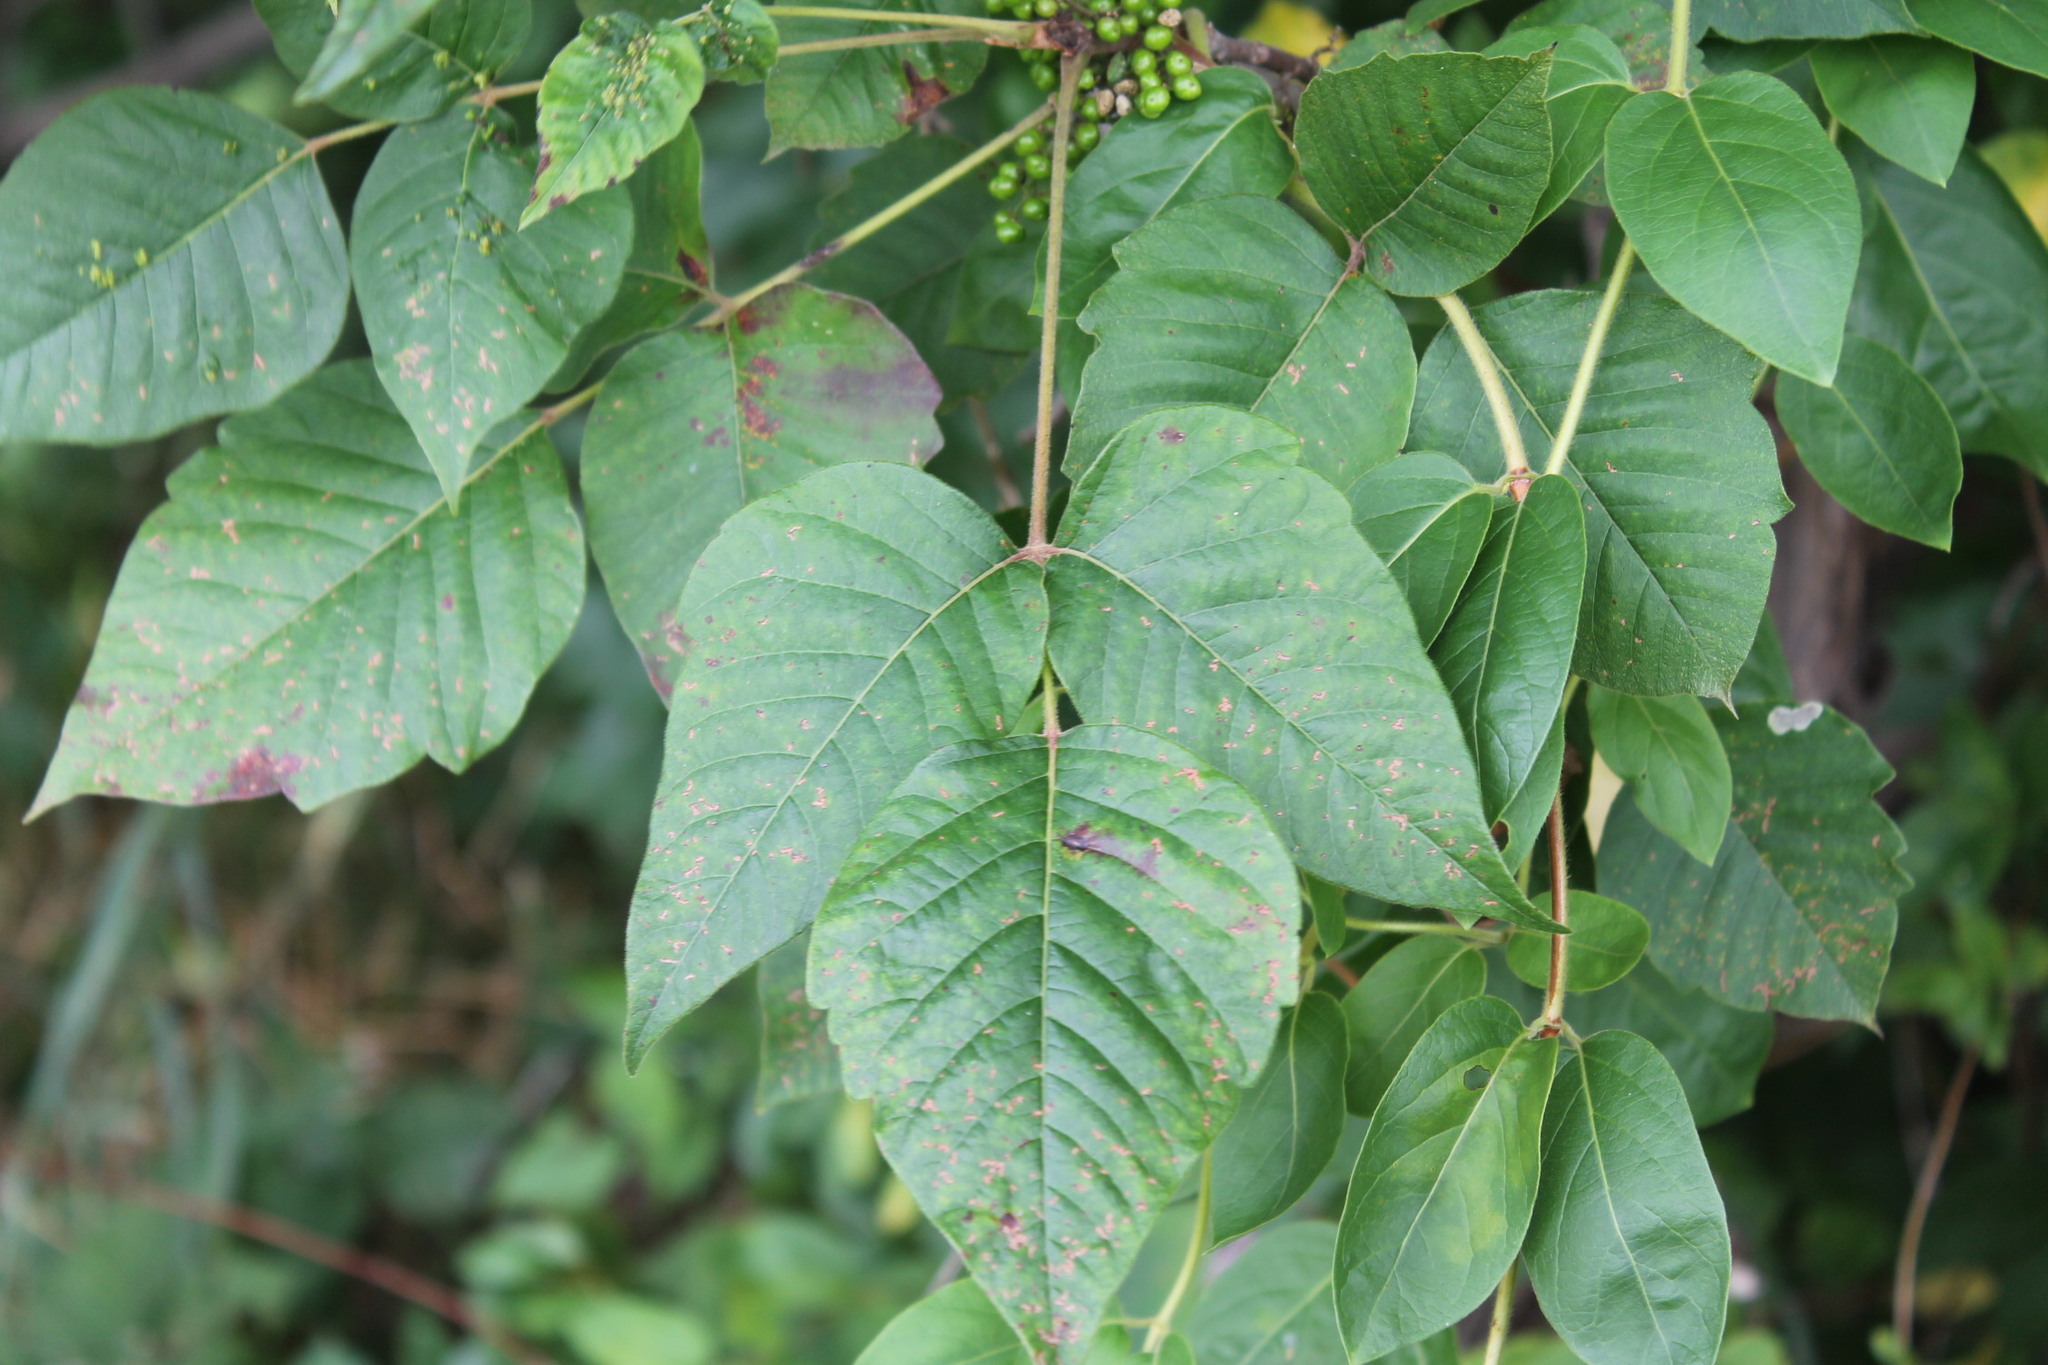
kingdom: Plantae
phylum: Tracheophyta
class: Magnoliopsida
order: Sapindales
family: Anacardiaceae
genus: Toxicodendron
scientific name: Toxicodendron radicans
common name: Poison ivy
